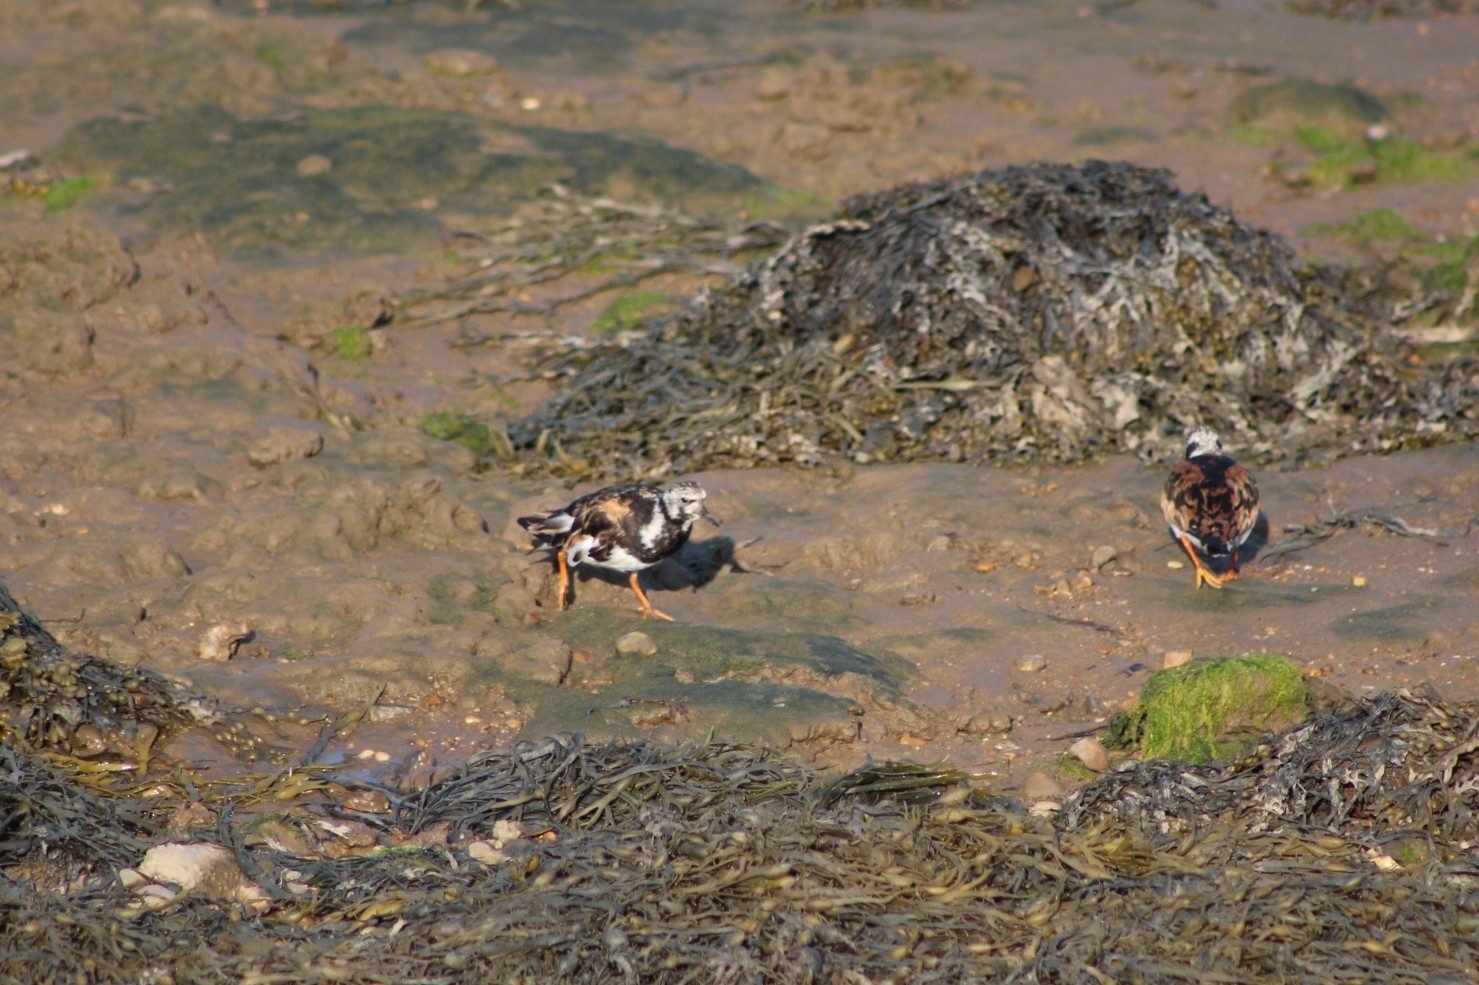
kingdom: Animalia
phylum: Chordata
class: Aves
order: Charadriiformes
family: Scolopacidae
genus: Arenaria
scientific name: Arenaria interpres
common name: Ruddy turnstone
